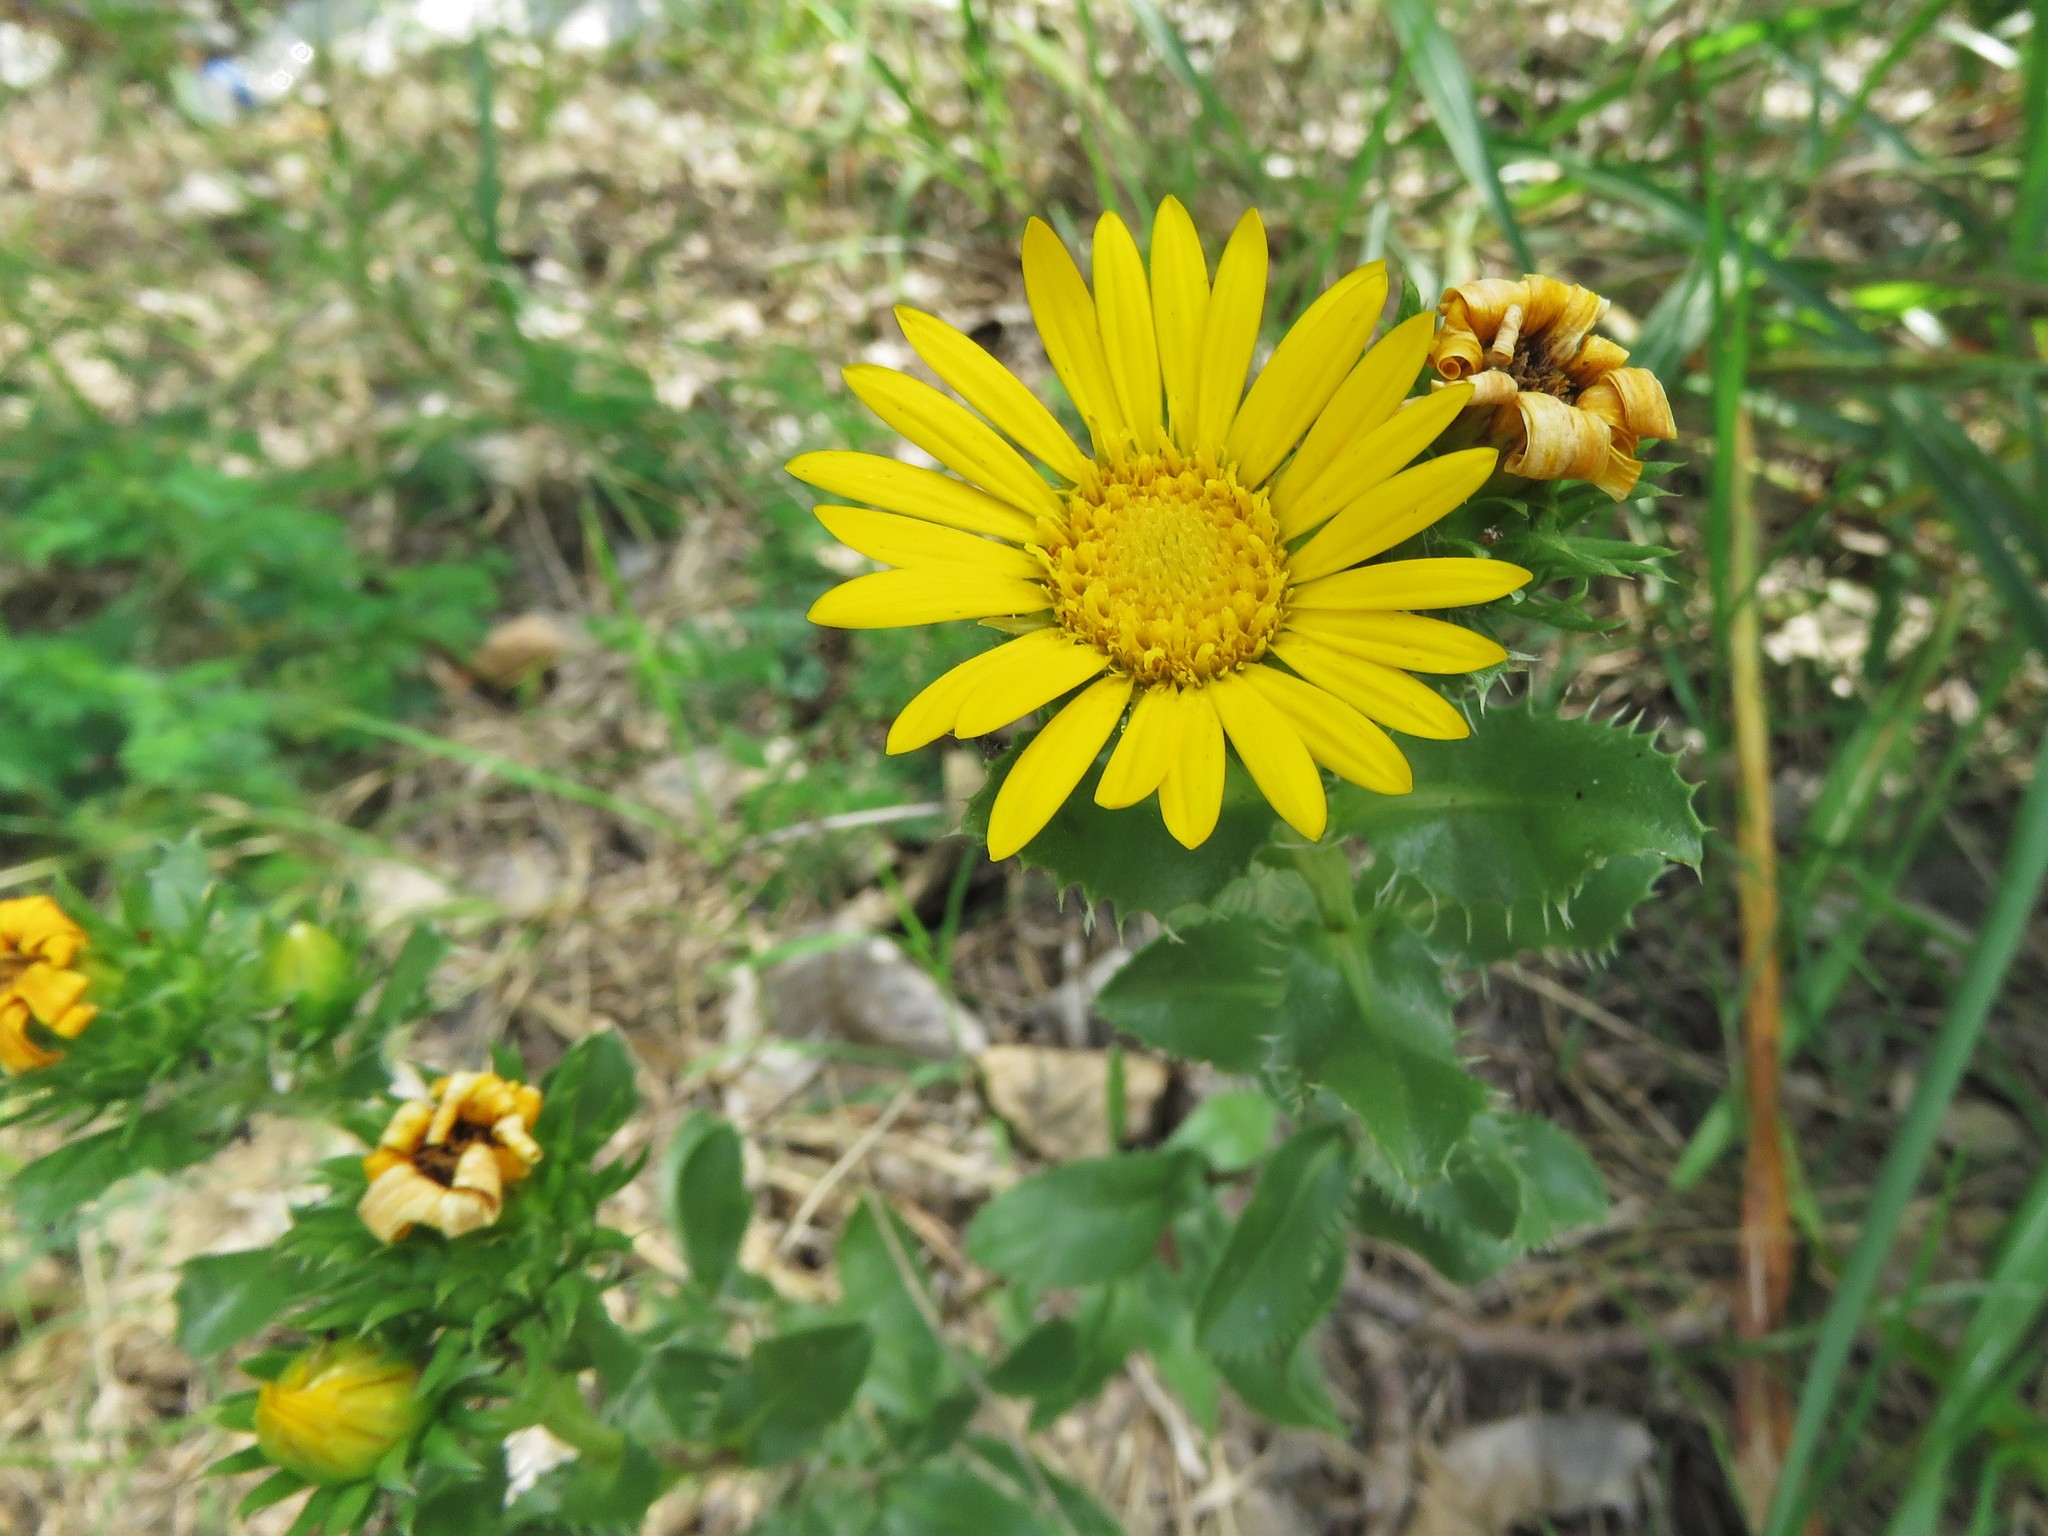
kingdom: Plantae
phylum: Tracheophyta
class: Magnoliopsida
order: Asterales
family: Asteraceae
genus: Grindelia
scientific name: Grindelia ciliata
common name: Goldenweed
